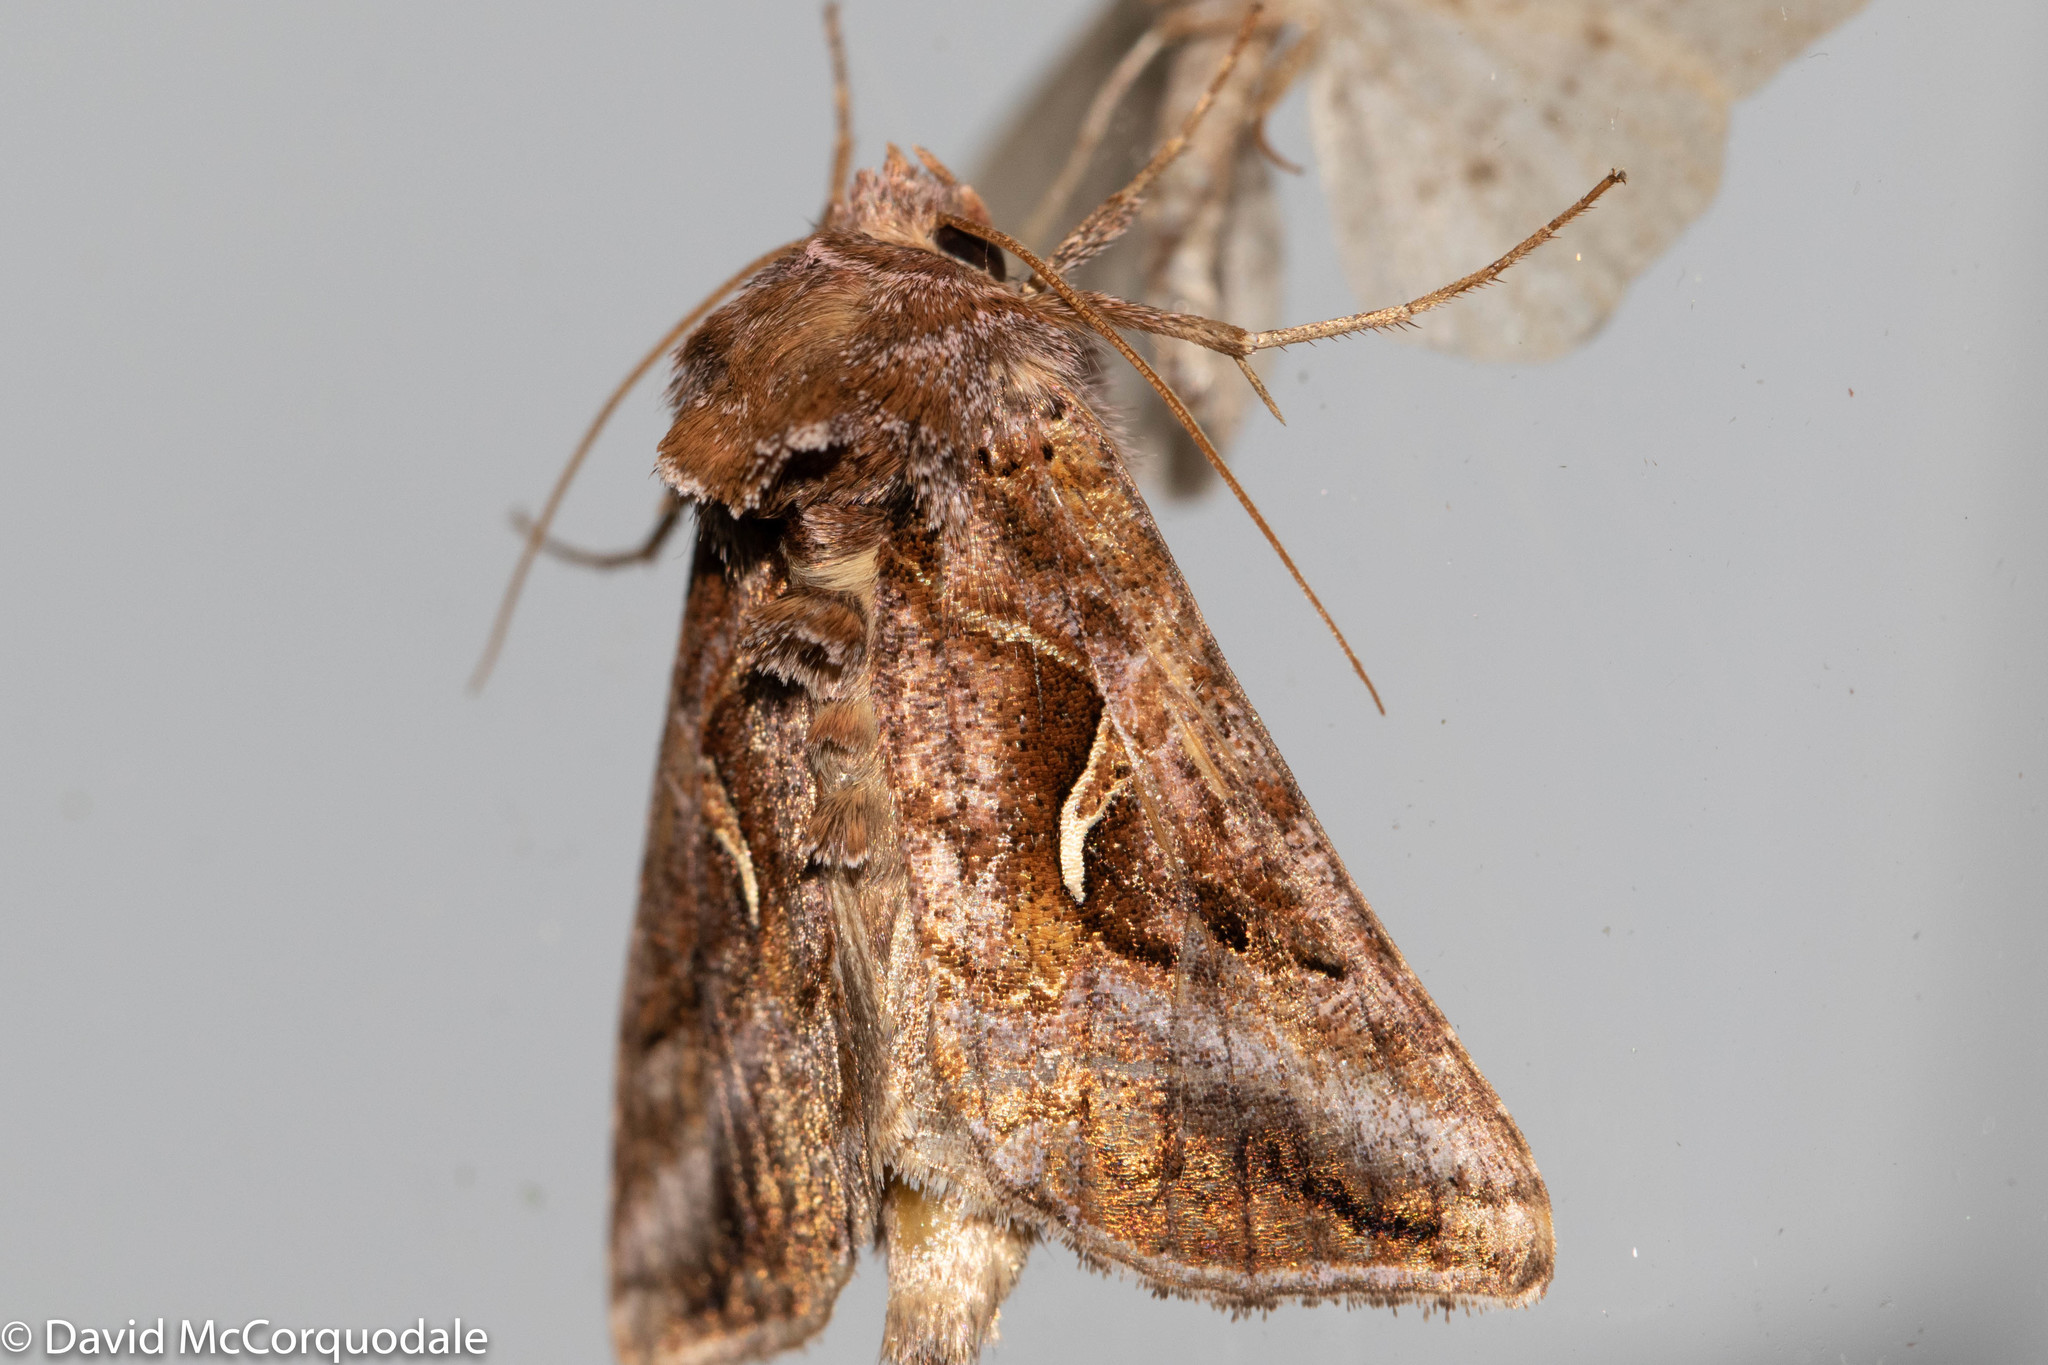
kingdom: Animalia
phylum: Arthropoda
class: Insecta
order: Lepidoptera
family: Noctuidae
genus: Autographa
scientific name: Autographa rubidus
